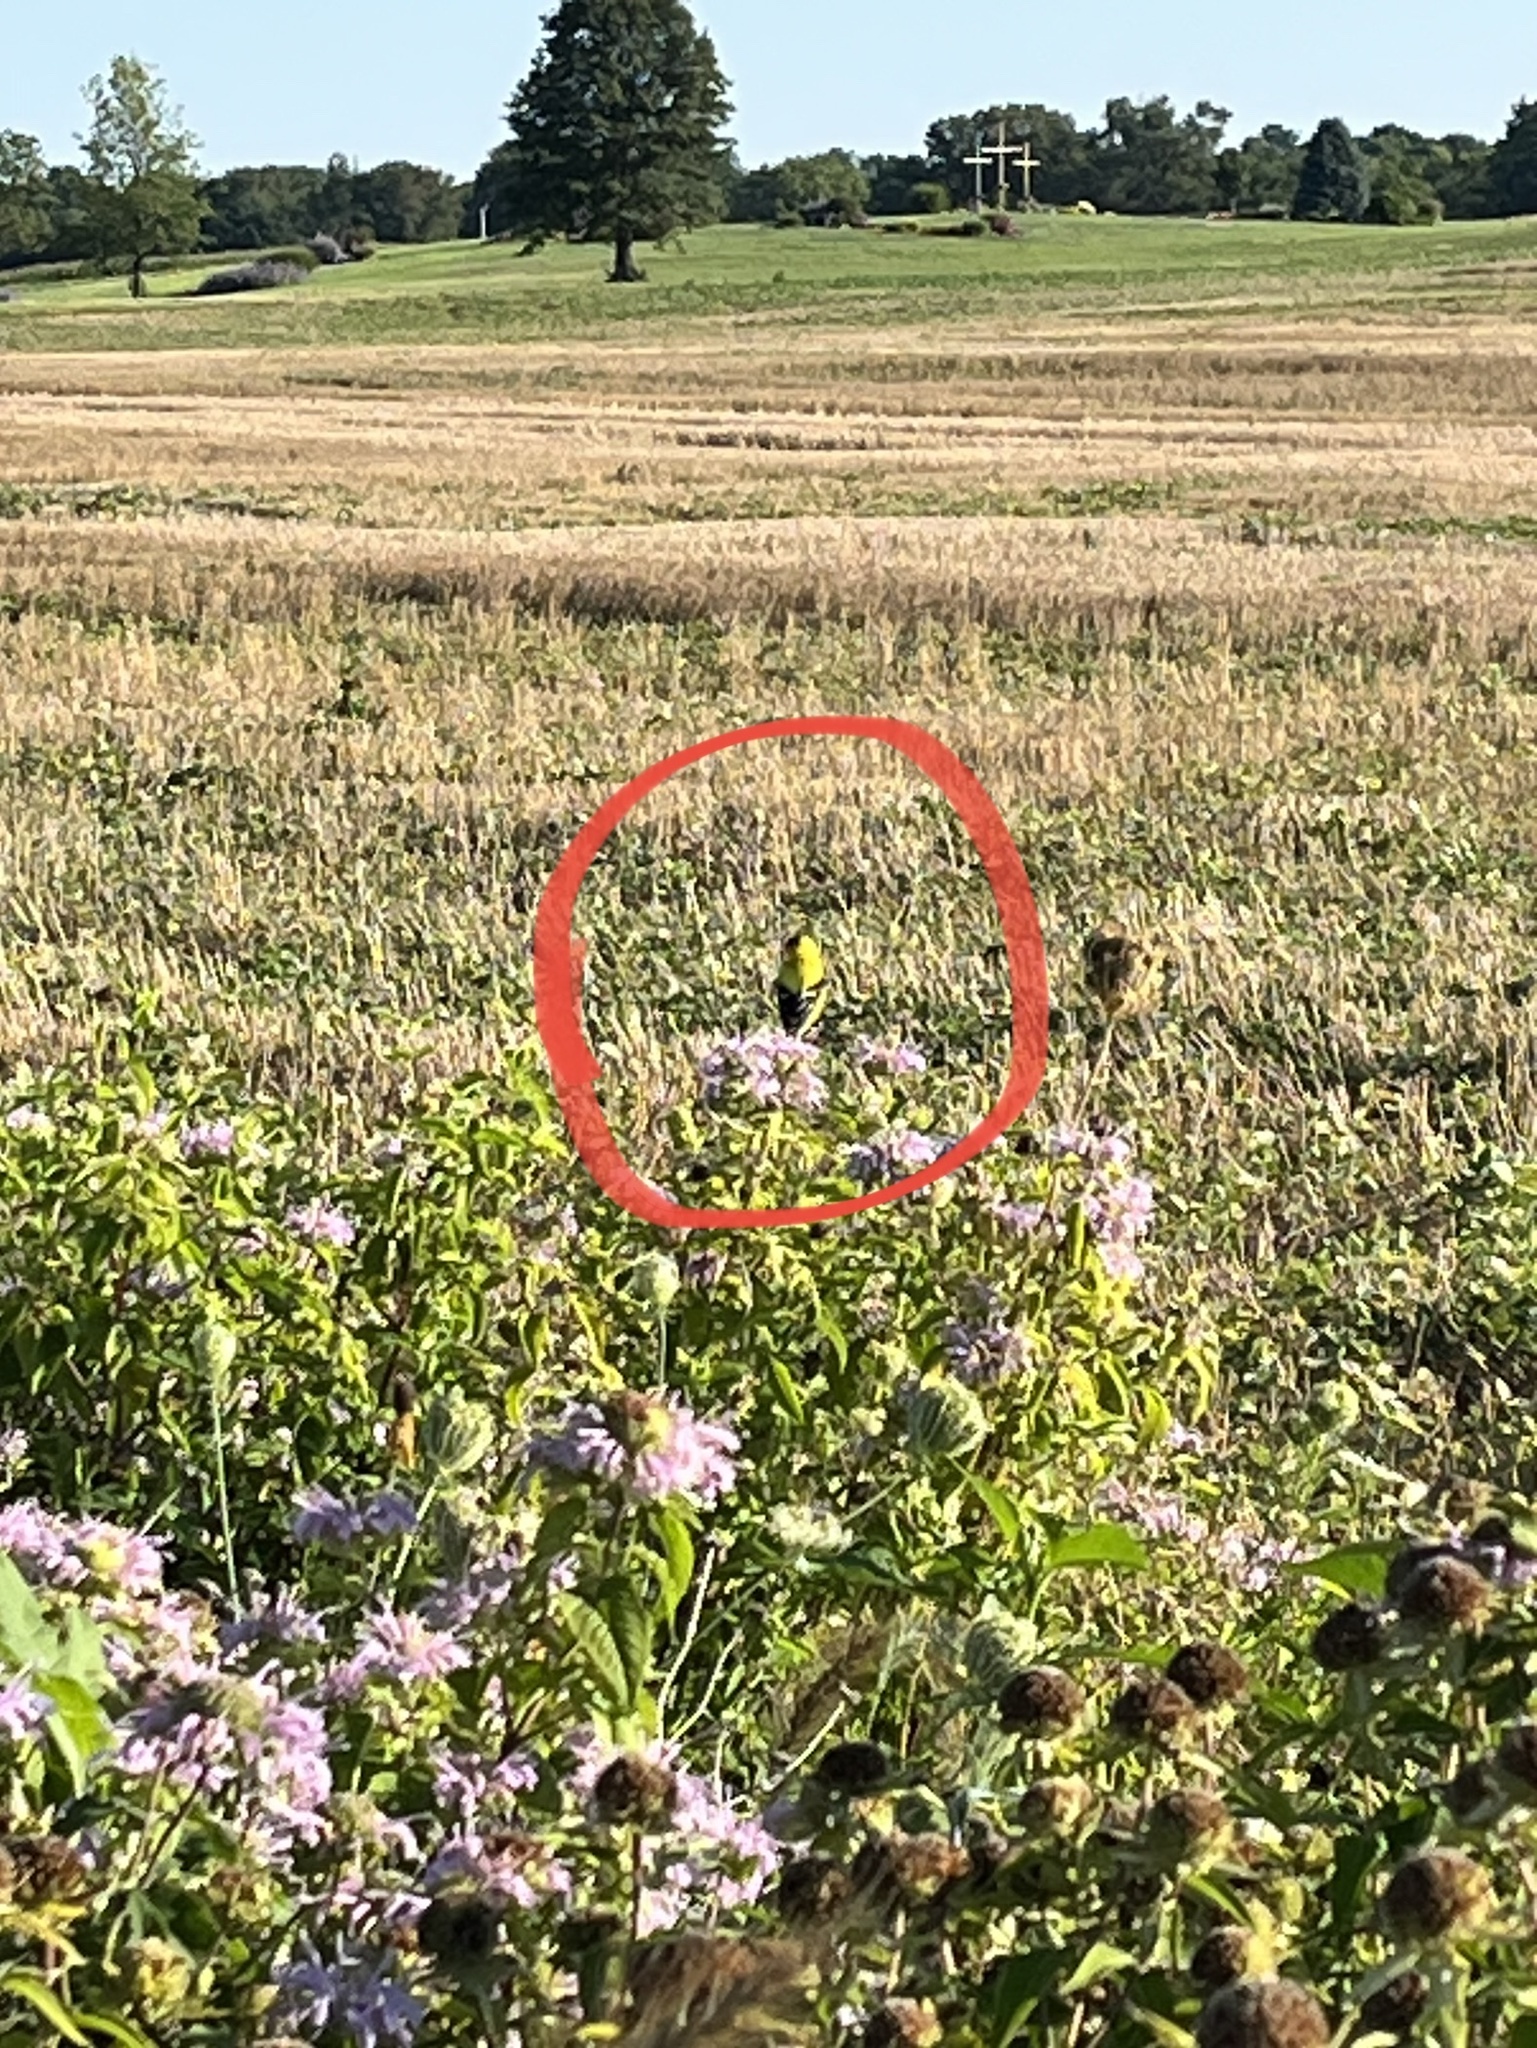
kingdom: Animalia
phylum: Chordata
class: Aves
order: Passeriformes
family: Fringillidae
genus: Spinus
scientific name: Spinus tristis
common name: American goldfinch
